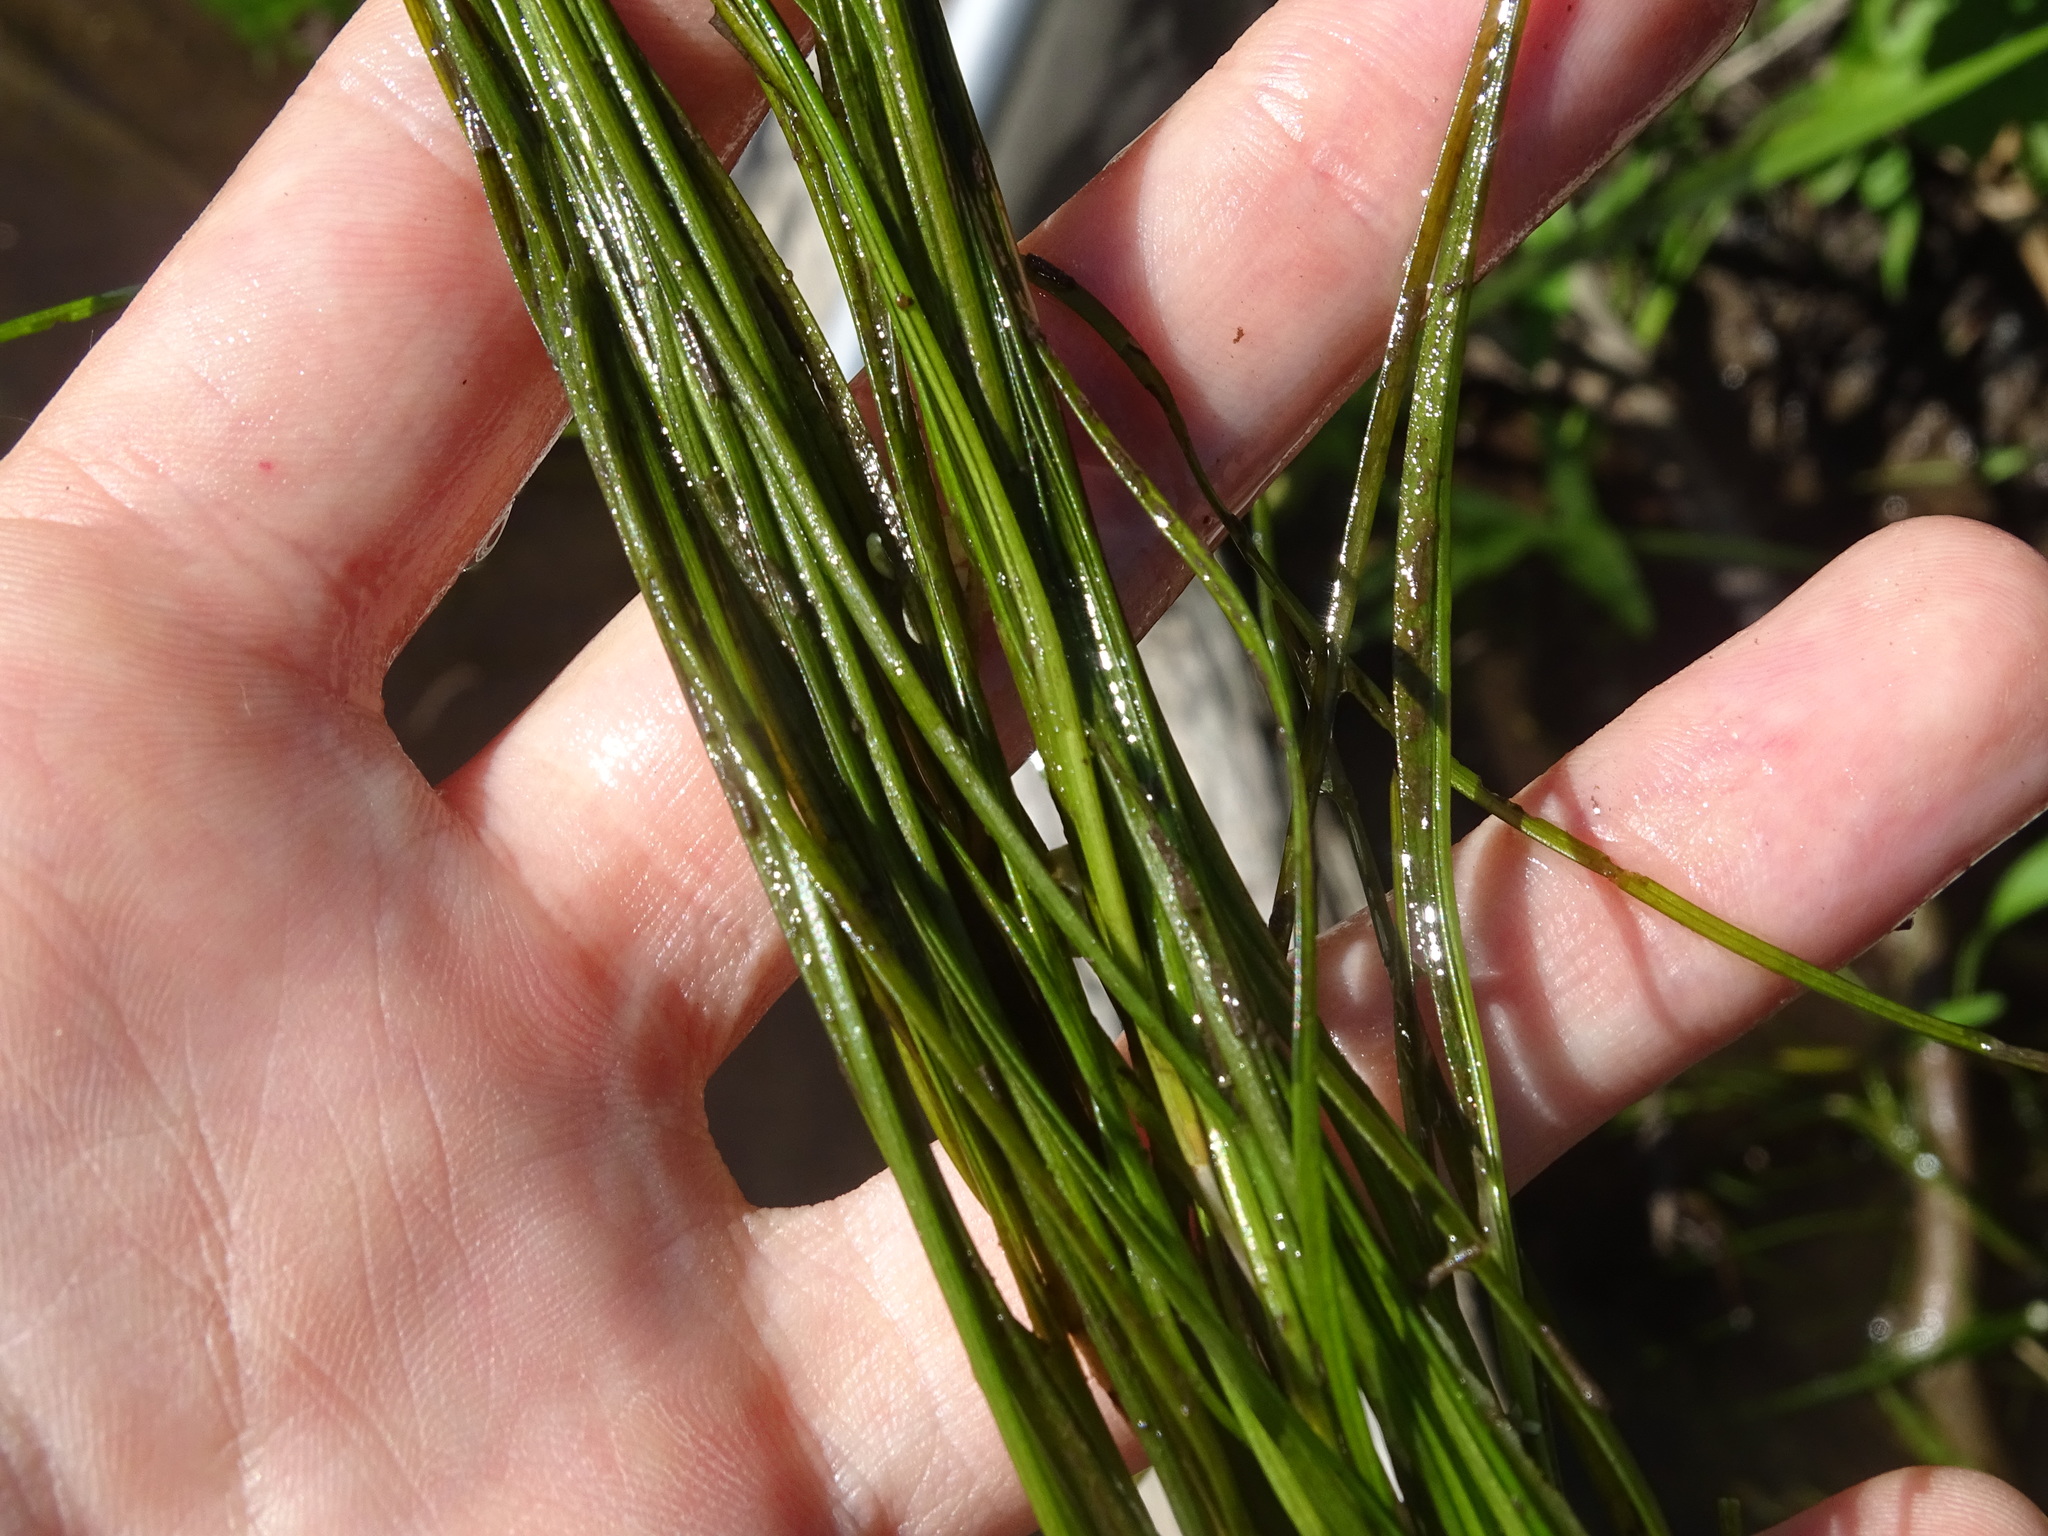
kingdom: Plantae
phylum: Tracheophyta
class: Liliopsida
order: Alismatales
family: Potamogetonaceae
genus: Stuckenia
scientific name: Stuckenia pectinata
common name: Sago pondweed
